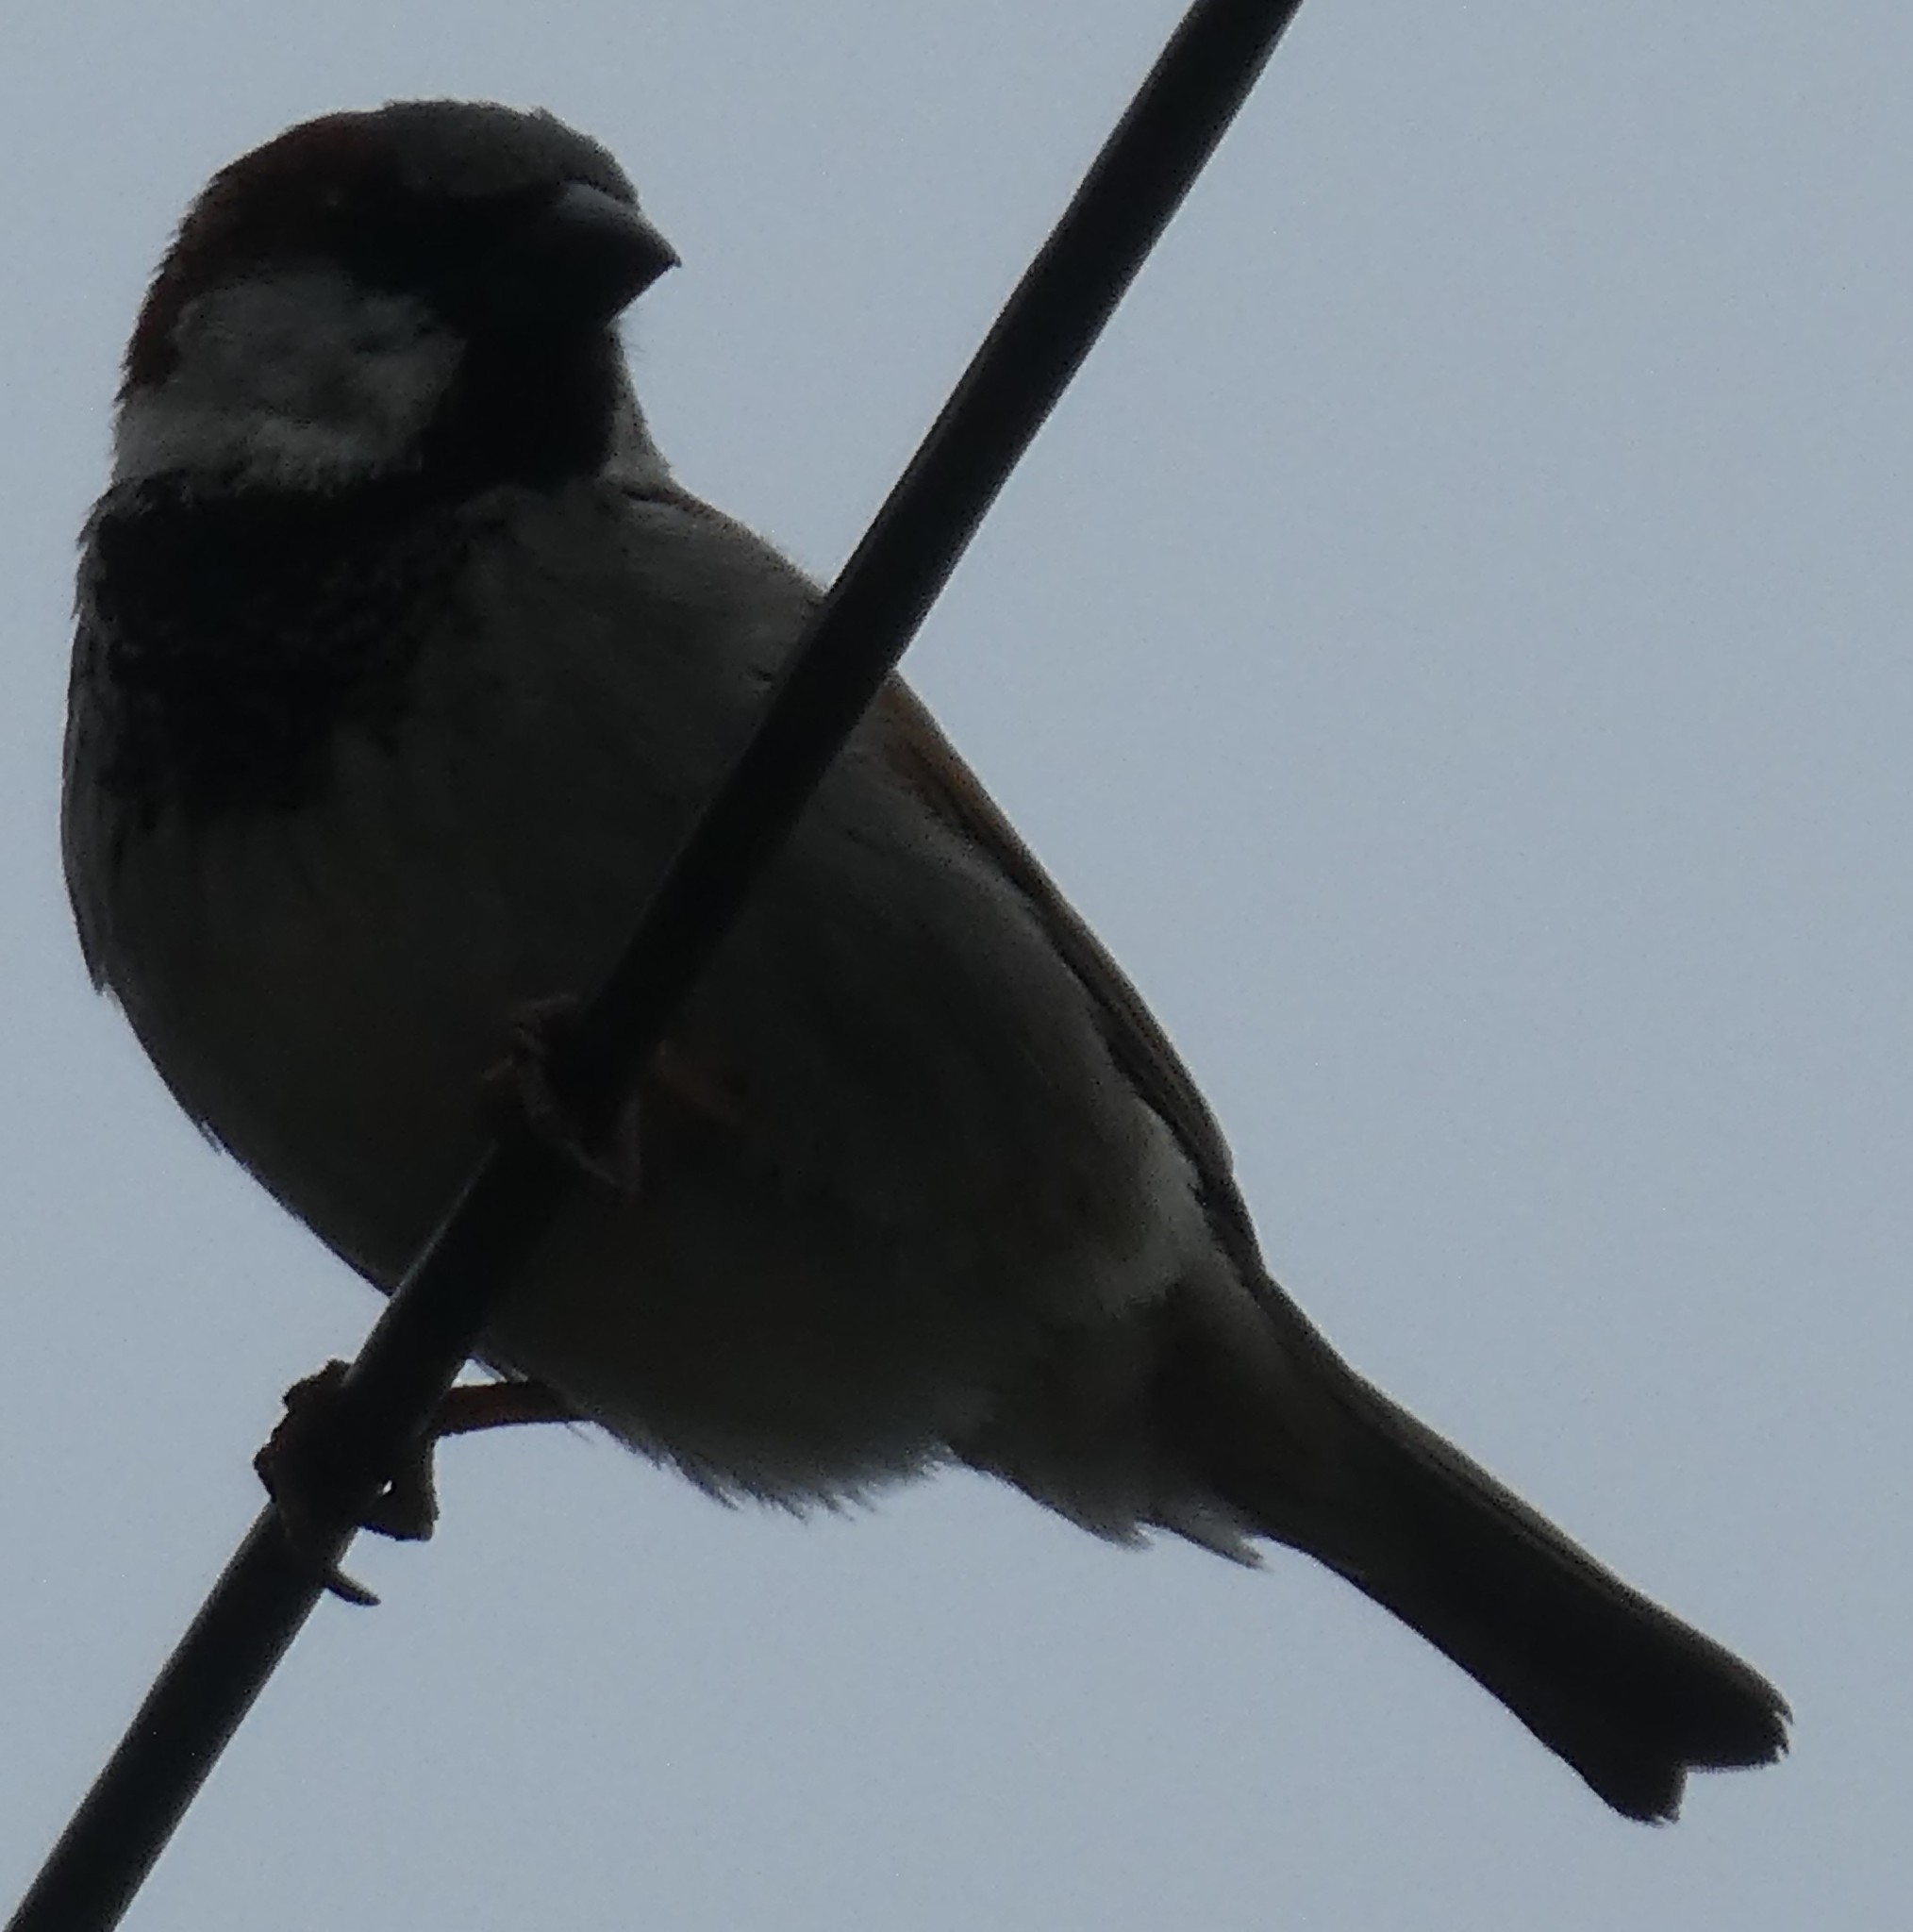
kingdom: Animalia
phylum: Chordata
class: Aves
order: Passeriformes
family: Passeridae
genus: Passer
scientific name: Passer domesticus
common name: House sparrow
